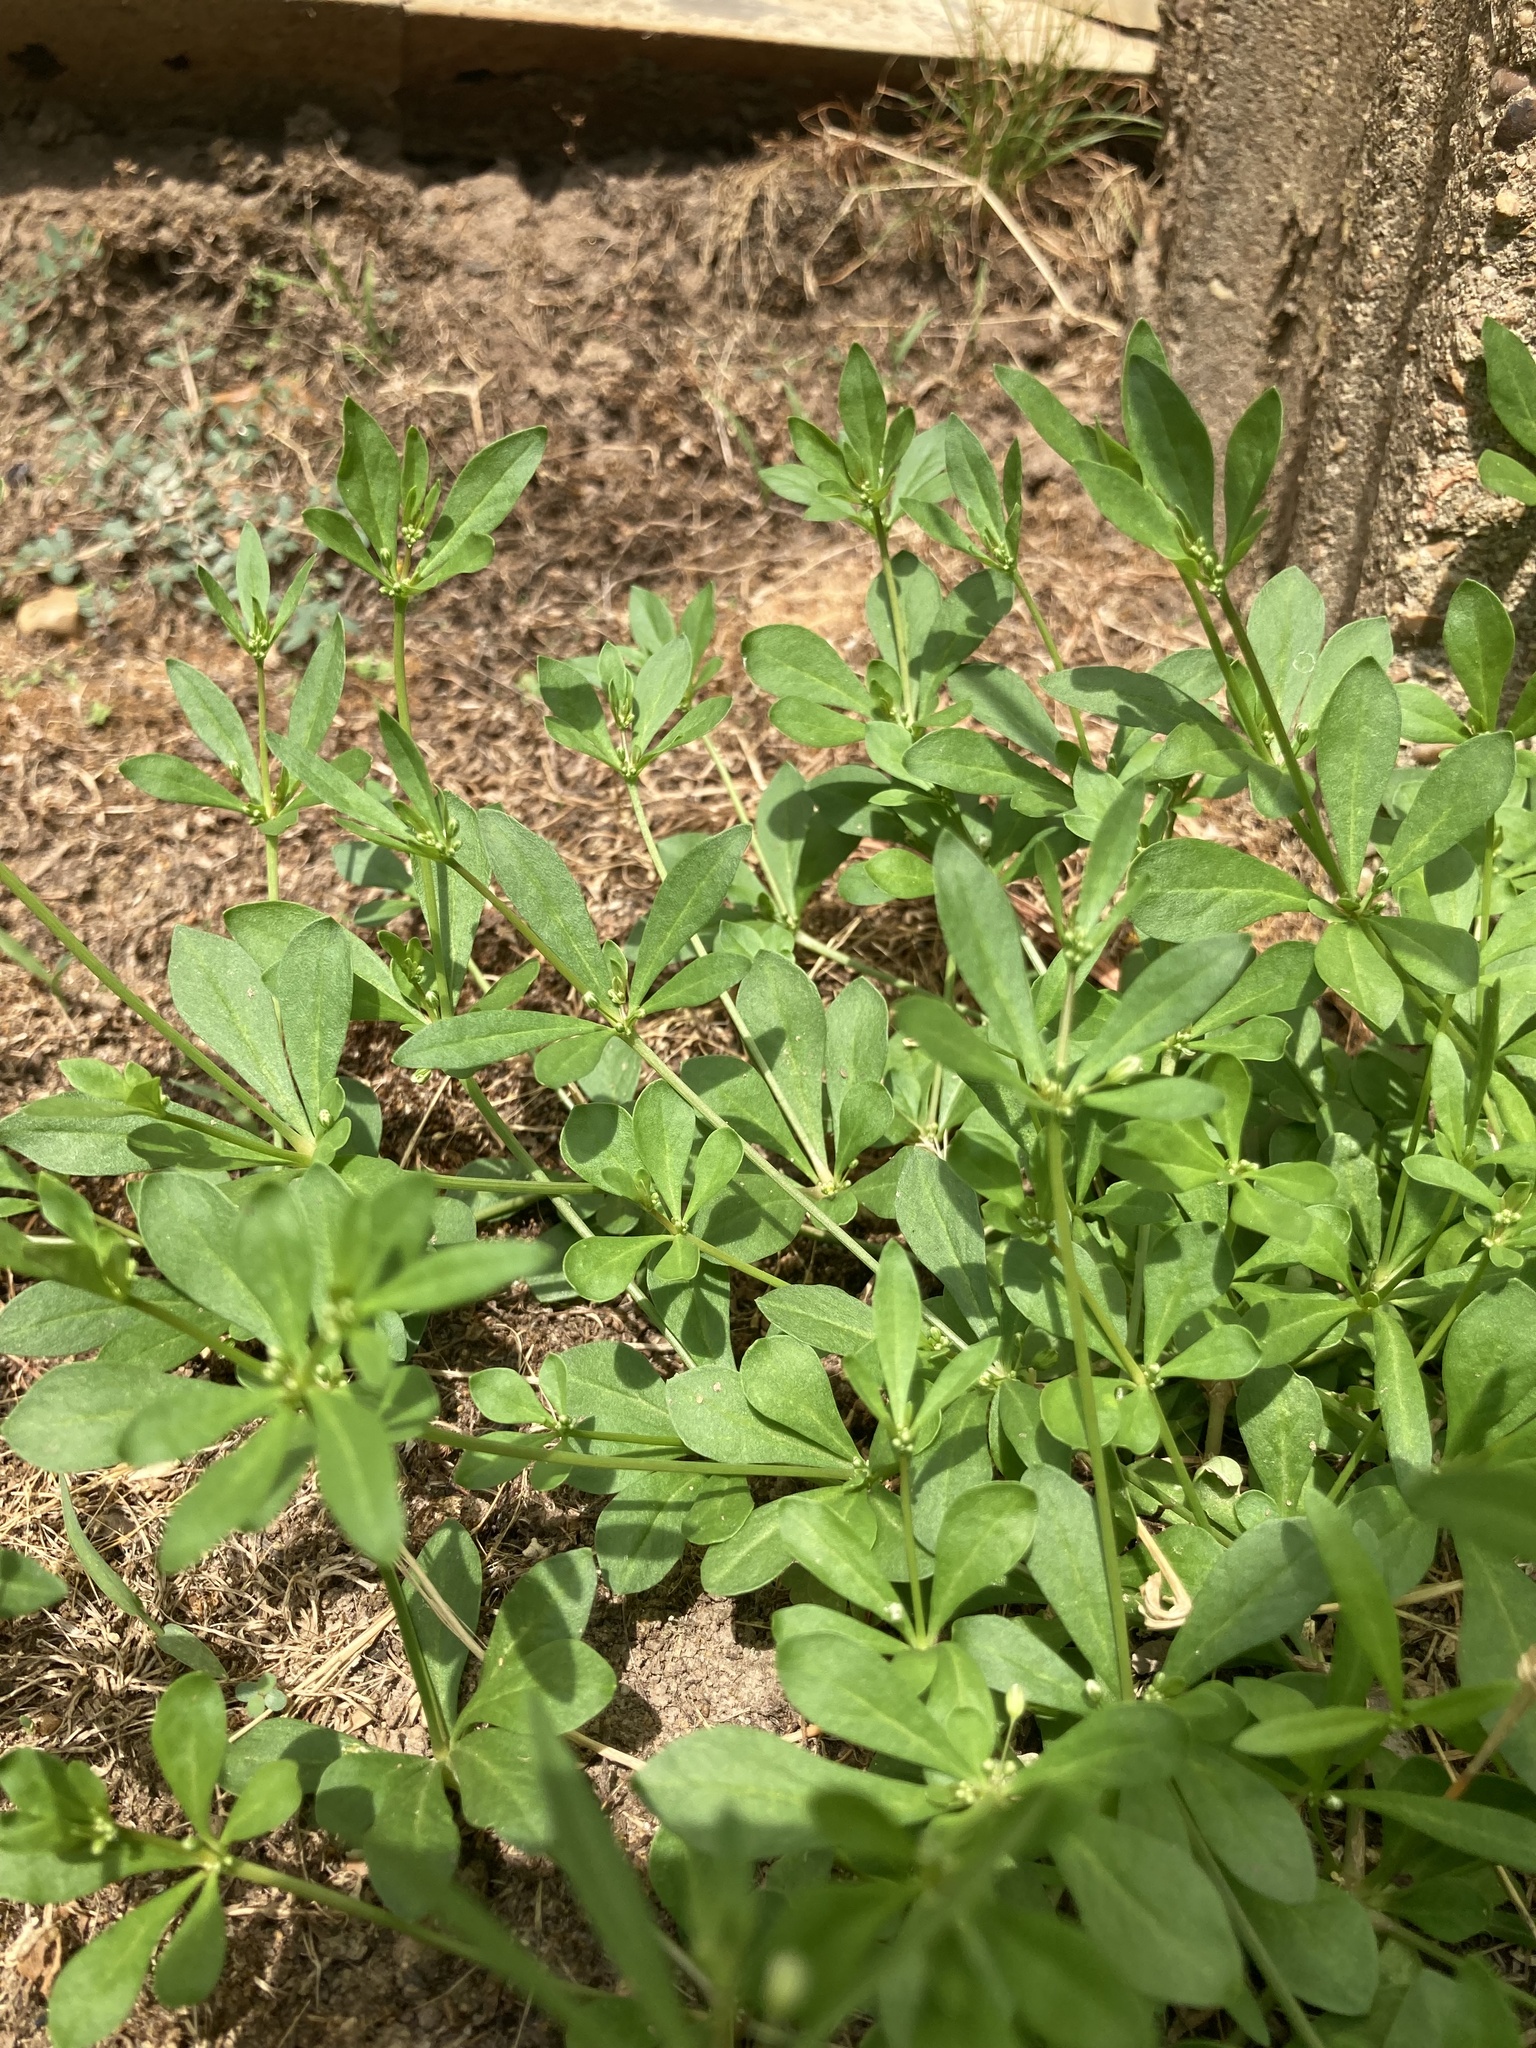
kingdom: Plantae
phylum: Tracheophyta
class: Magnoliopsida
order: Caryophyllales
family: Molluginaceae
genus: Mollugo
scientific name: Mollugo verticillata
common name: Green carpetweed
